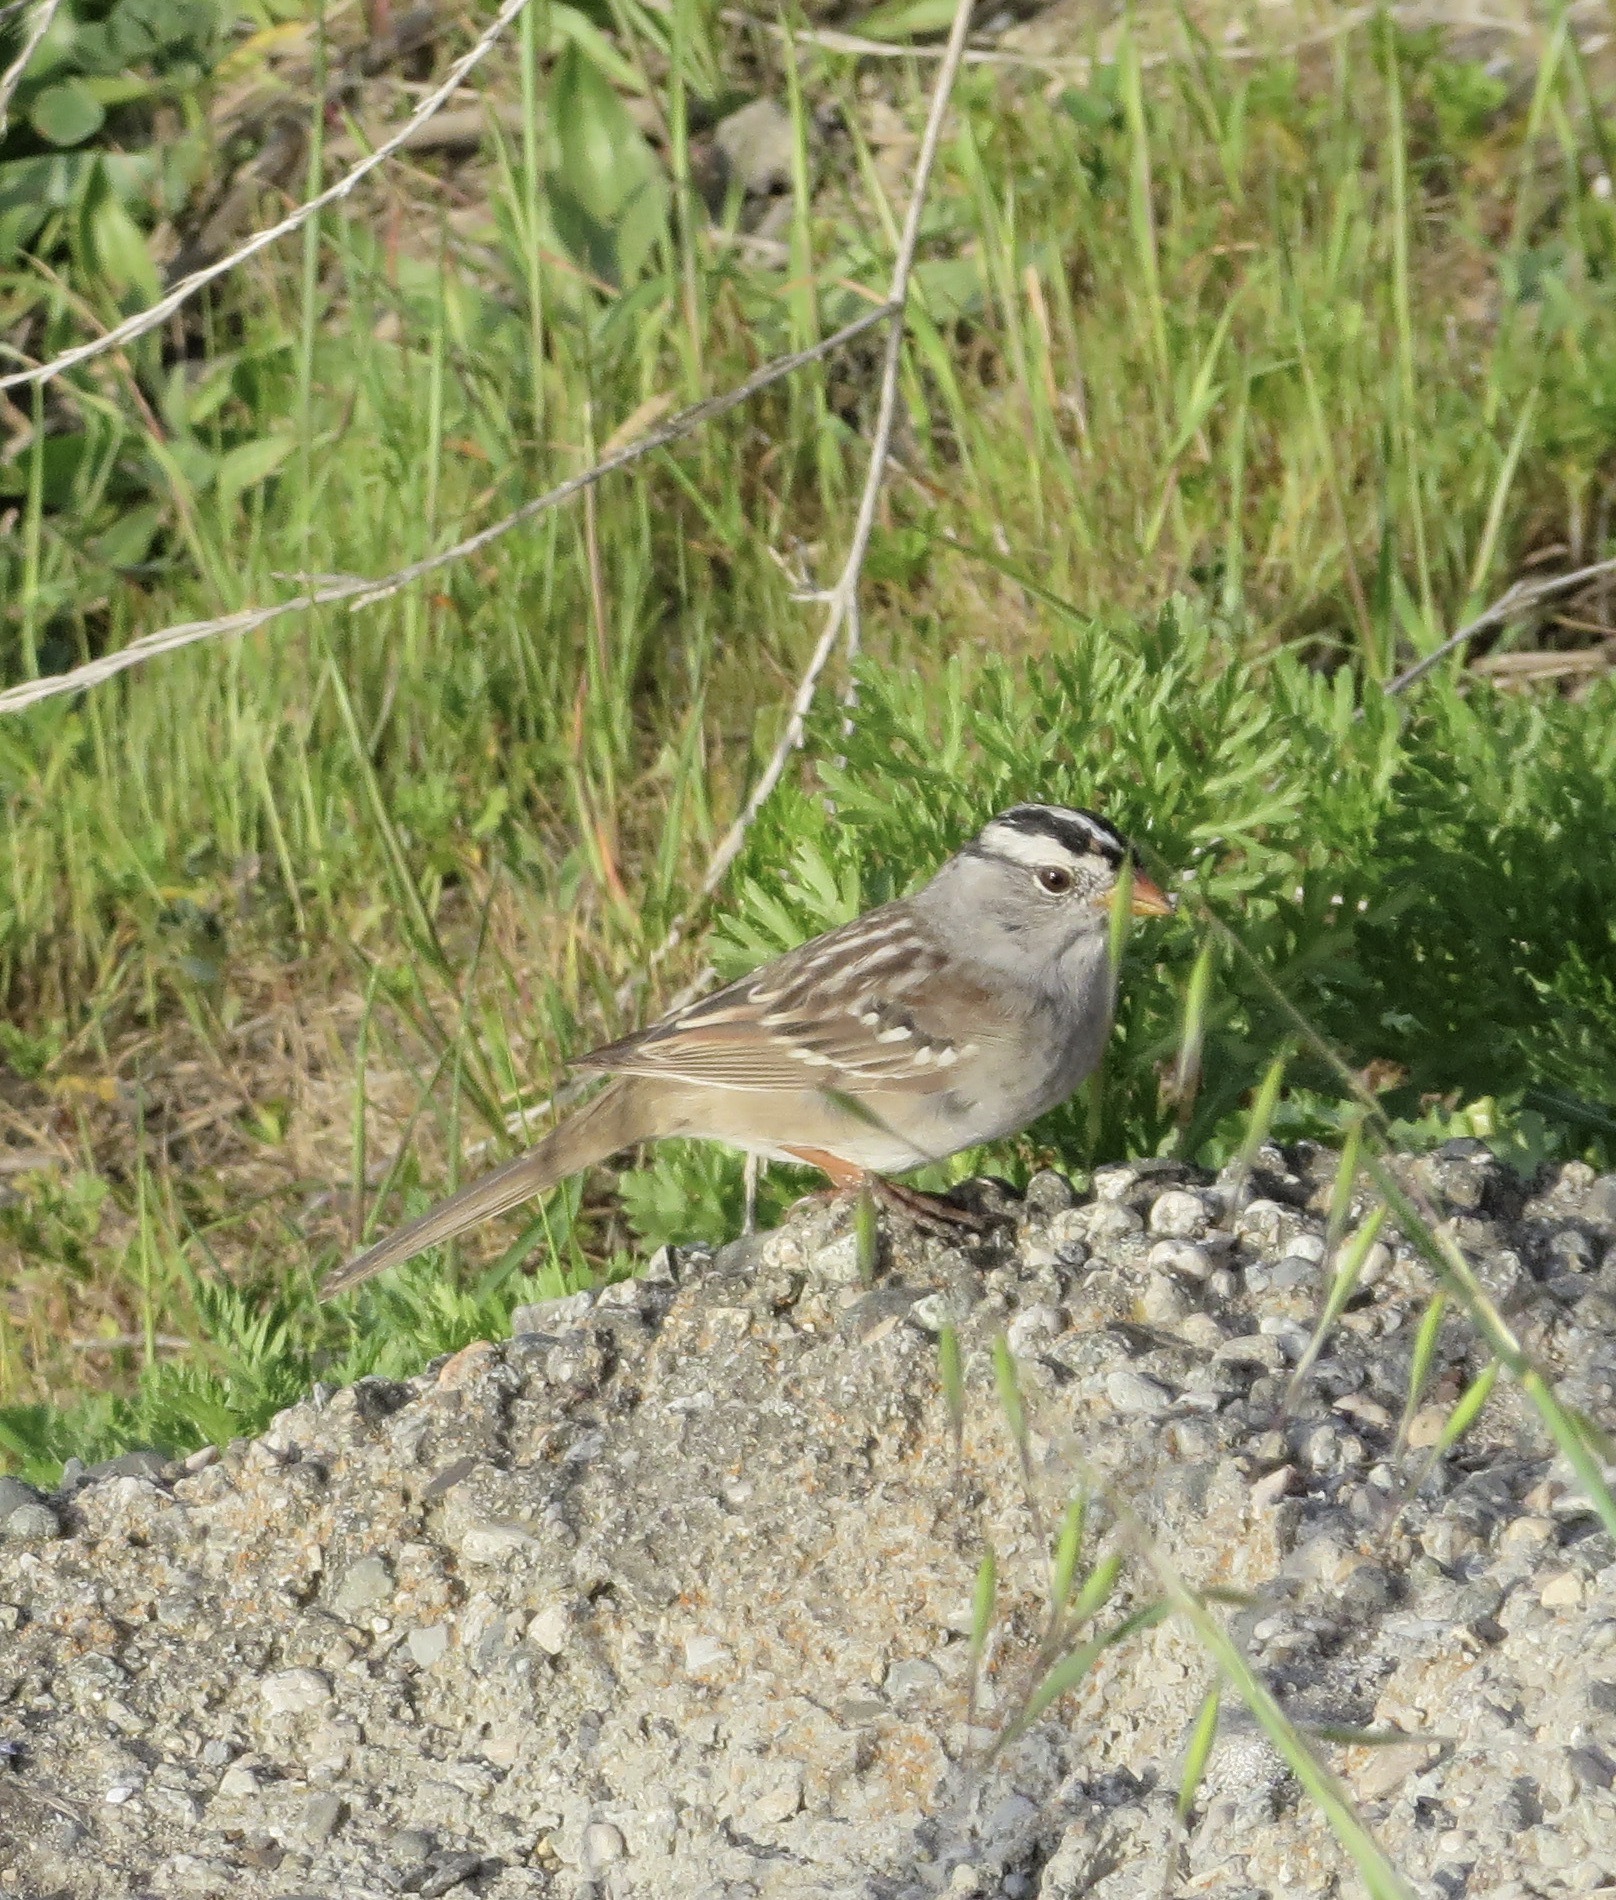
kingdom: Animalia
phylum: Chordata
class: Aves
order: Passeriformes
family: Passerellidae
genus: Zonotrichia
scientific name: Zonotrichia leucophrys
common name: White-crowned sparrow
